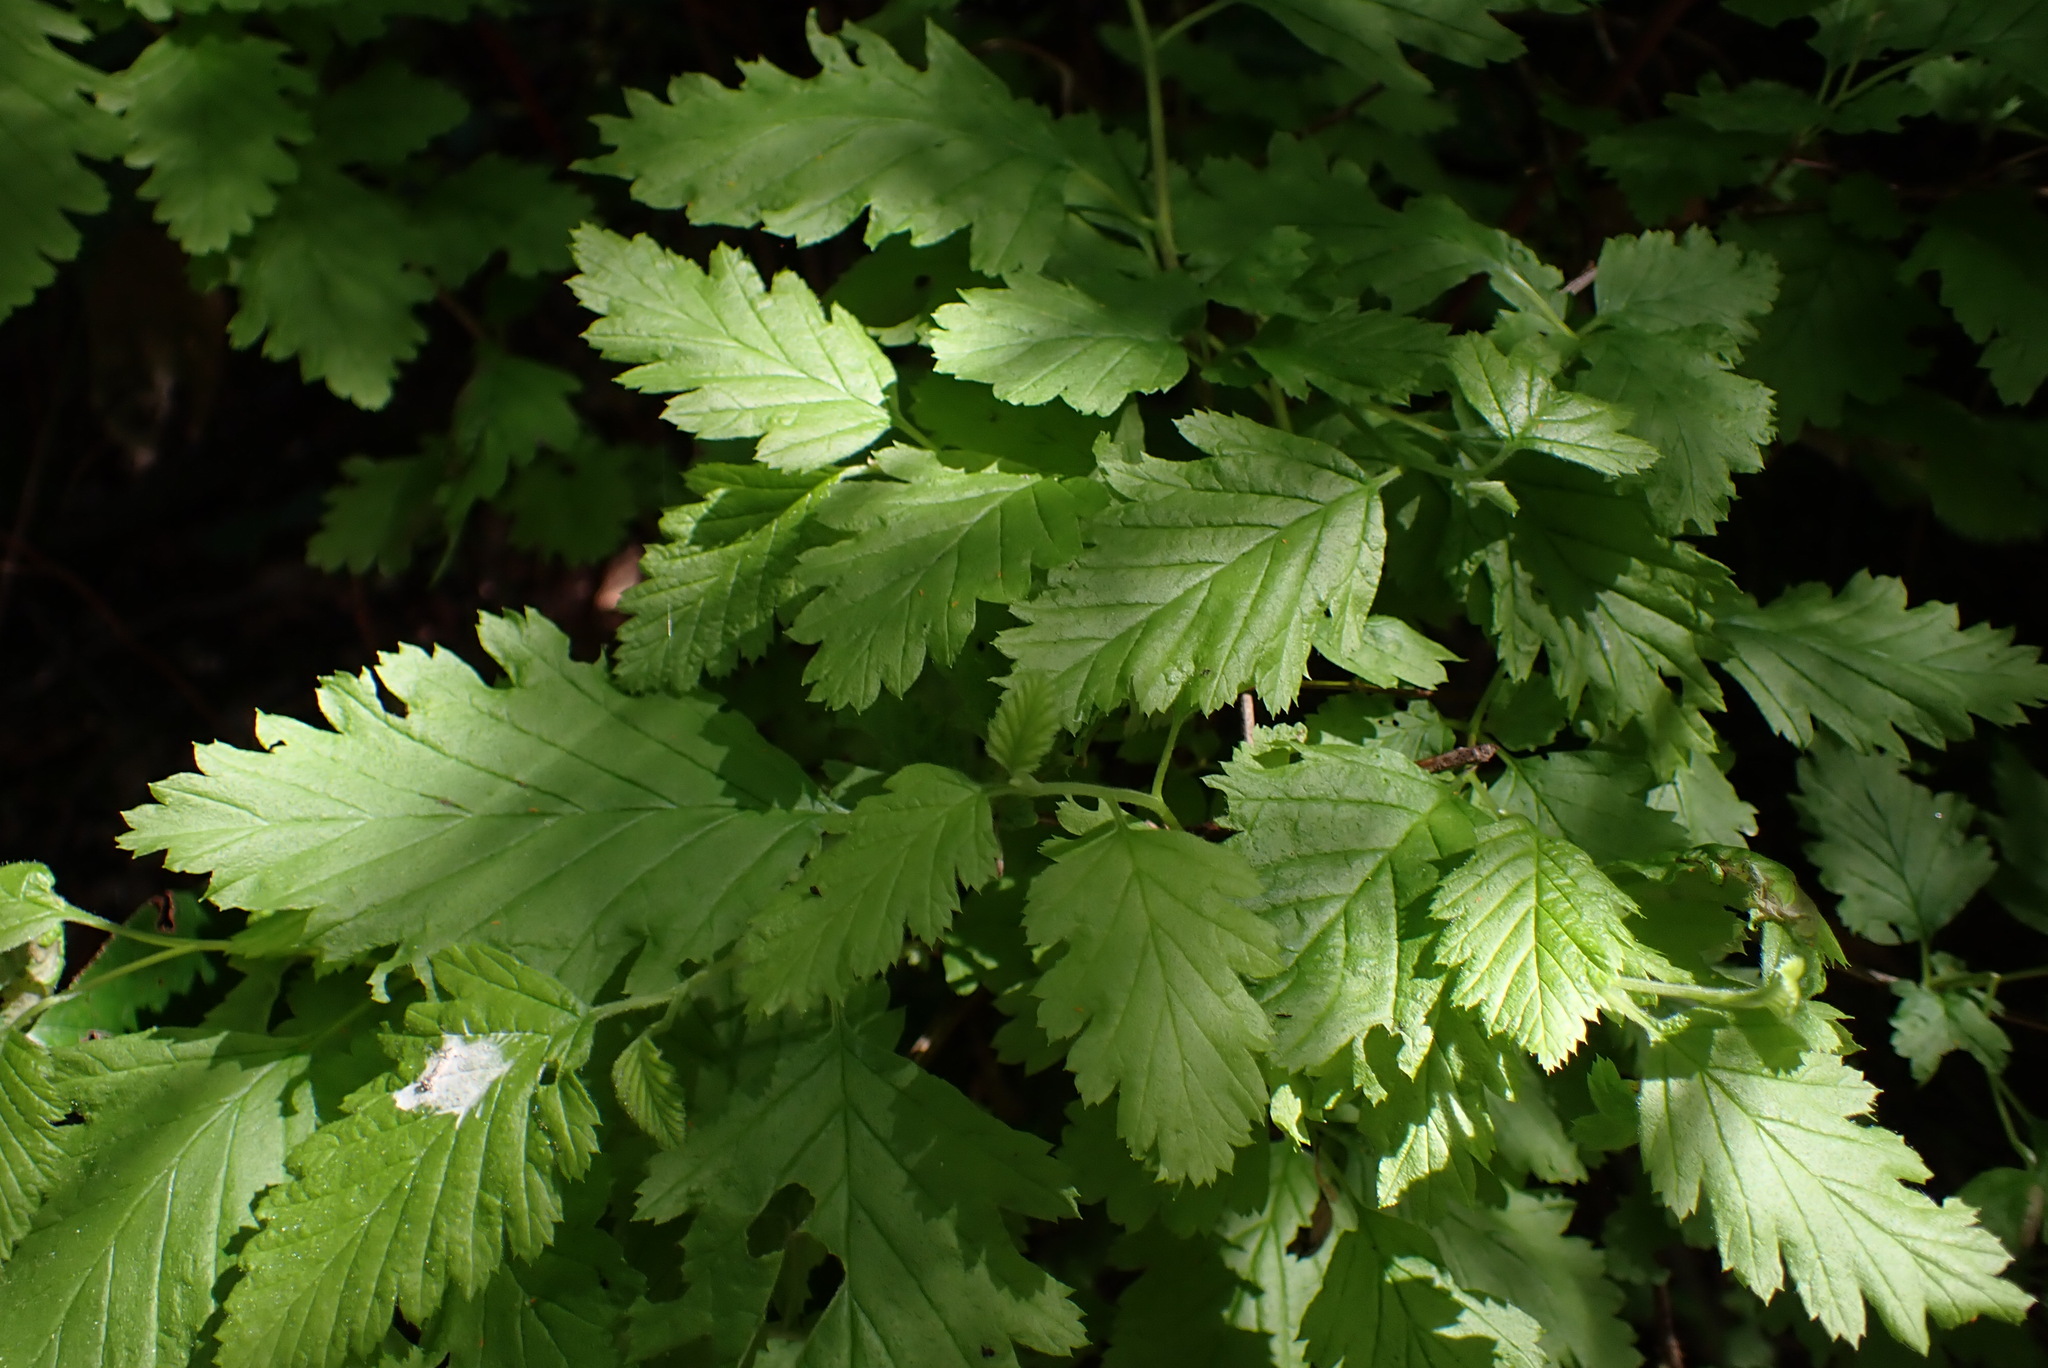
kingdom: Plantae
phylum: Tracheophyta
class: Magnoliopsida
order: Rosales
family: Rosaceae
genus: Holodiscus
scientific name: Holodiscus discolor
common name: Oceanspray
